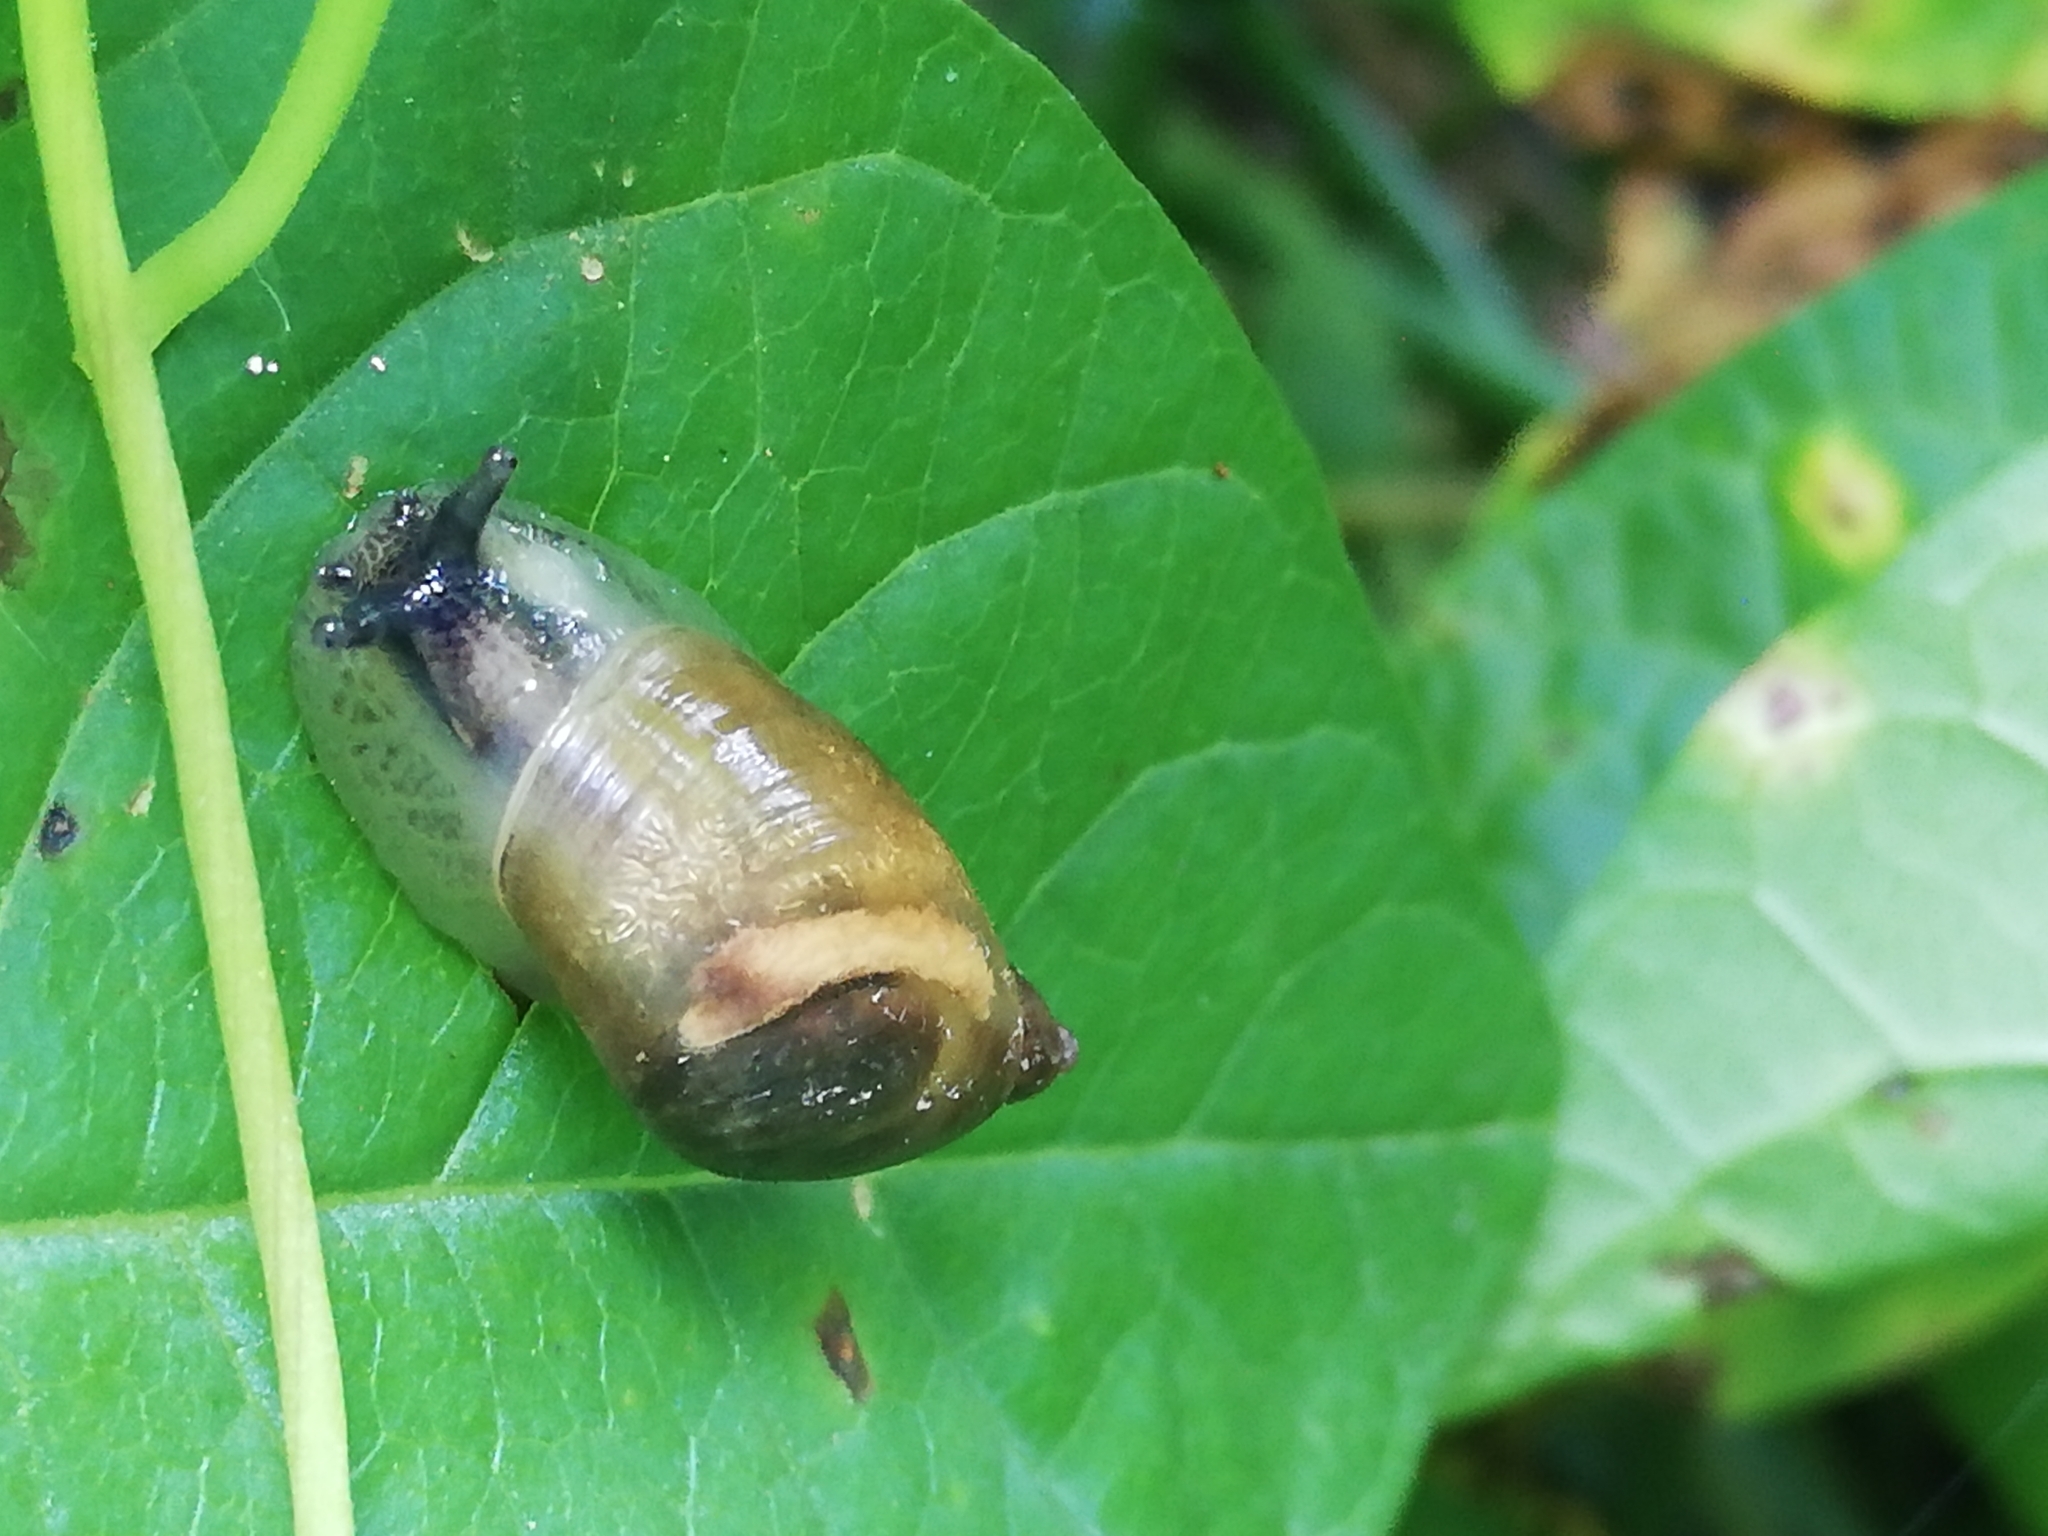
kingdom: Animalia
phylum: Mollusca
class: Gastropoda
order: Stylommatophora
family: Succineidae
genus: Succinea
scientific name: Succinea putris
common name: European ambersnail
